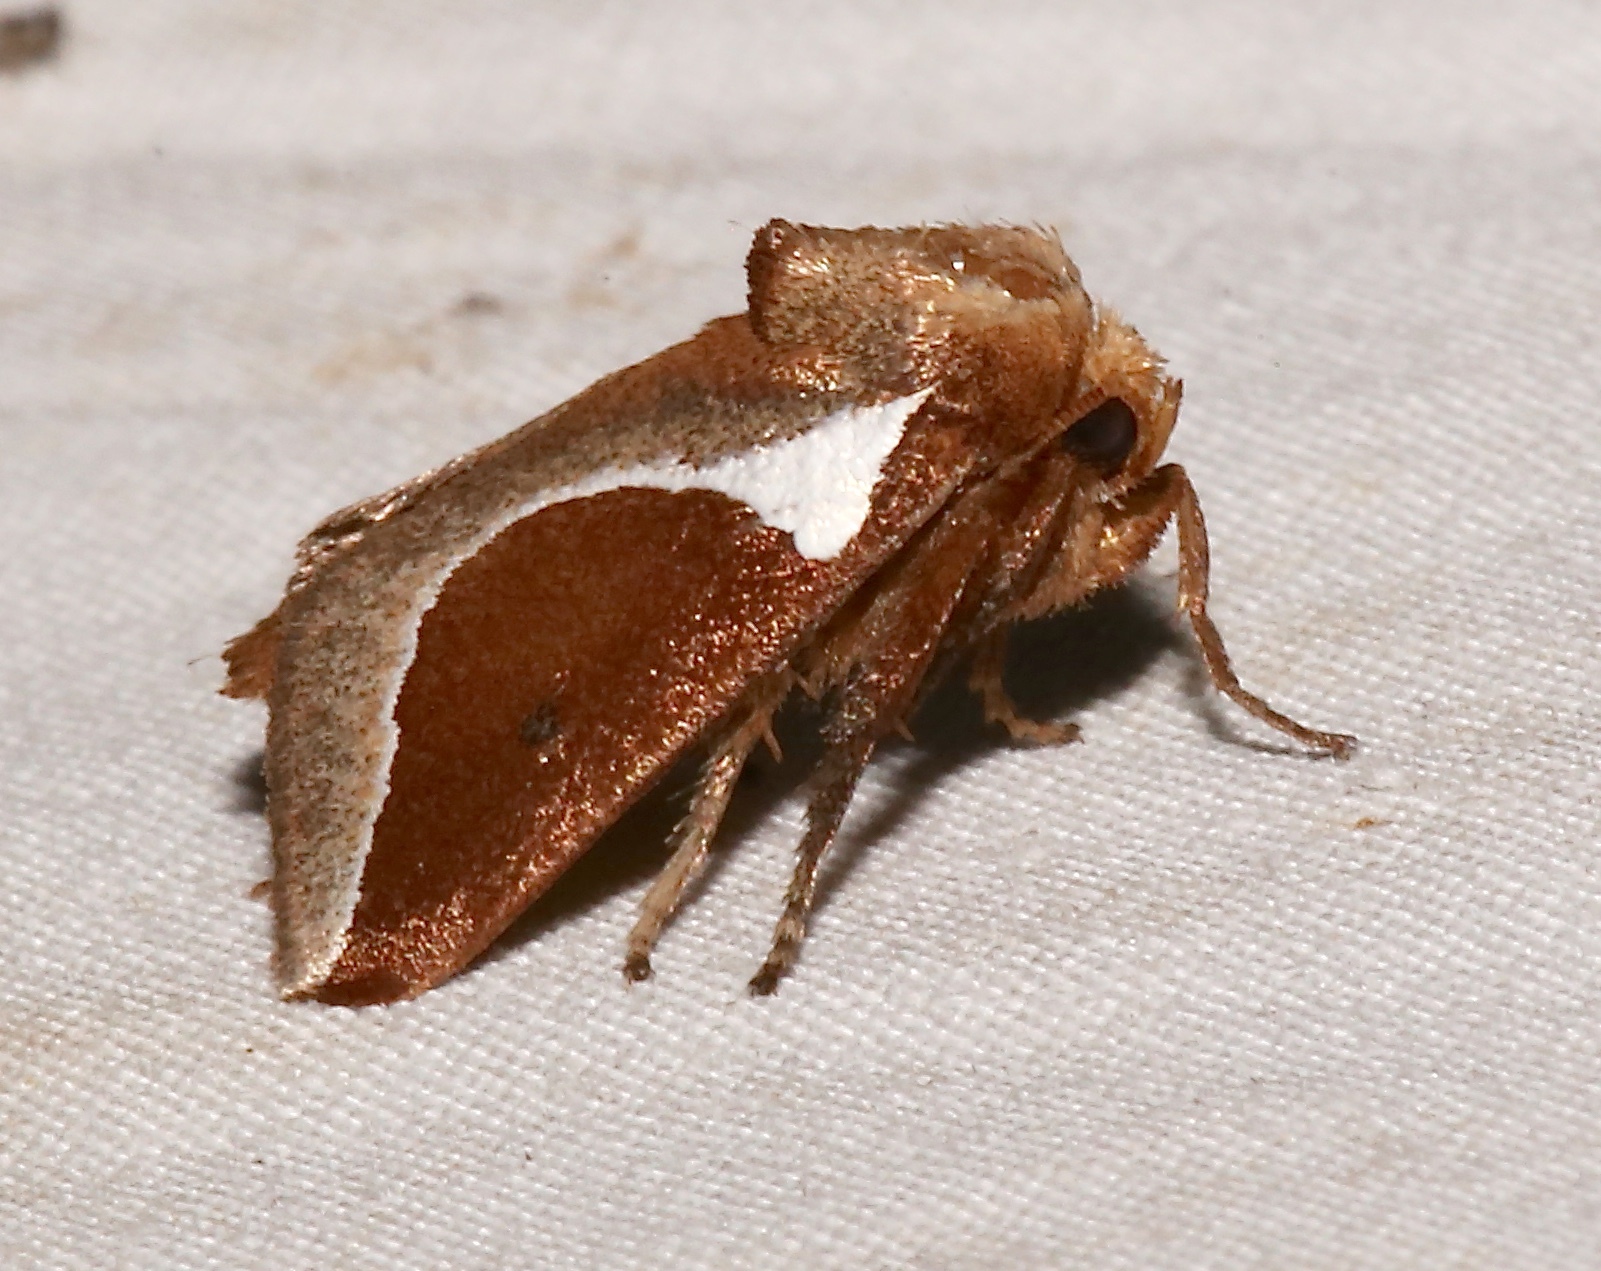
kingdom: Animalia
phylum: Arthropoda
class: Insecta
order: Lepidoptera
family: Limacodidae
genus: Prolimacodes
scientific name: Prolimacodes badia
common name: Skiff moth
